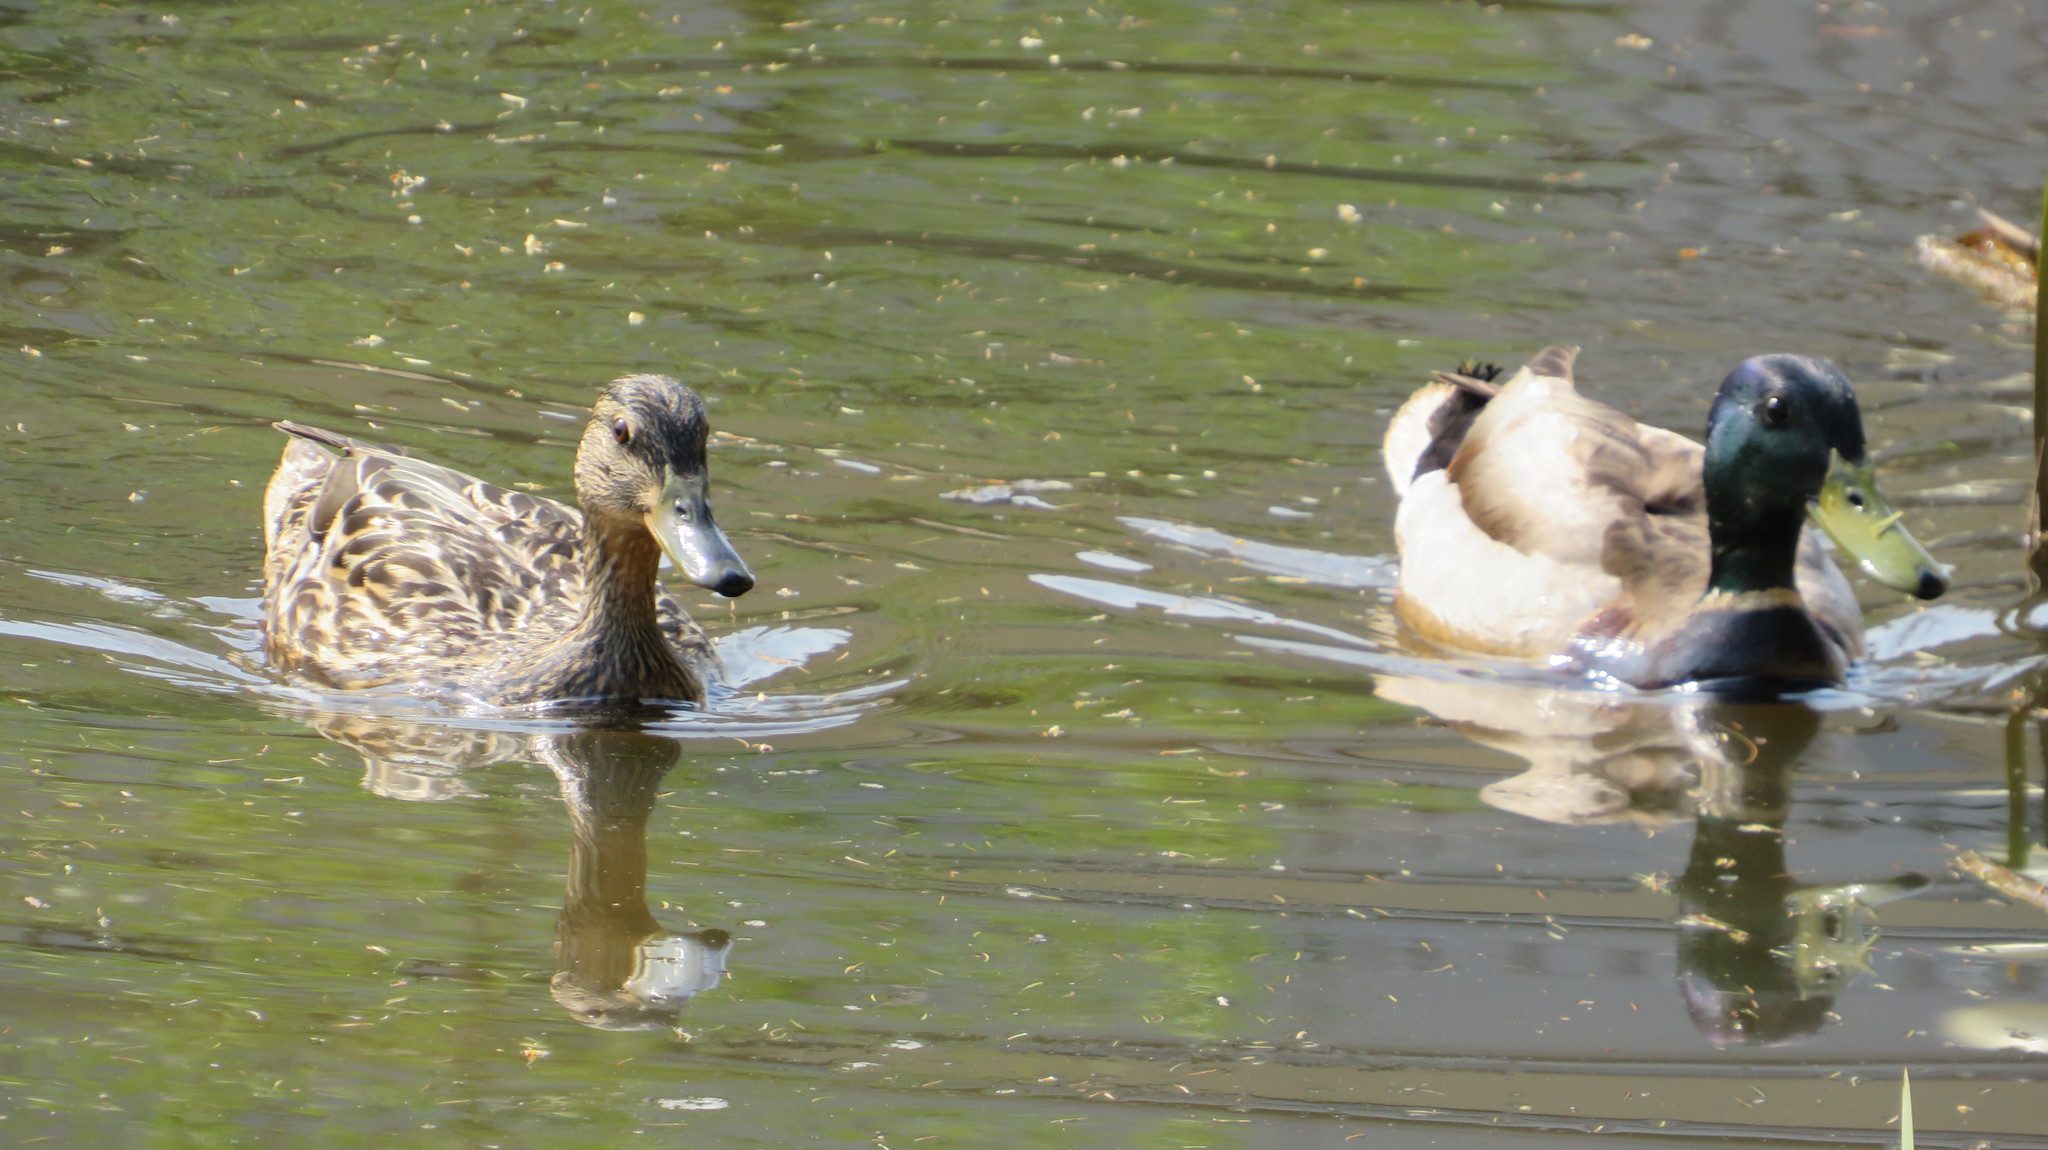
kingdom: Animalia
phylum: Chordata
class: Aves
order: Anseriformes
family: Anatidae
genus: Anas
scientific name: Anas platyrhynchos
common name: Mallard
